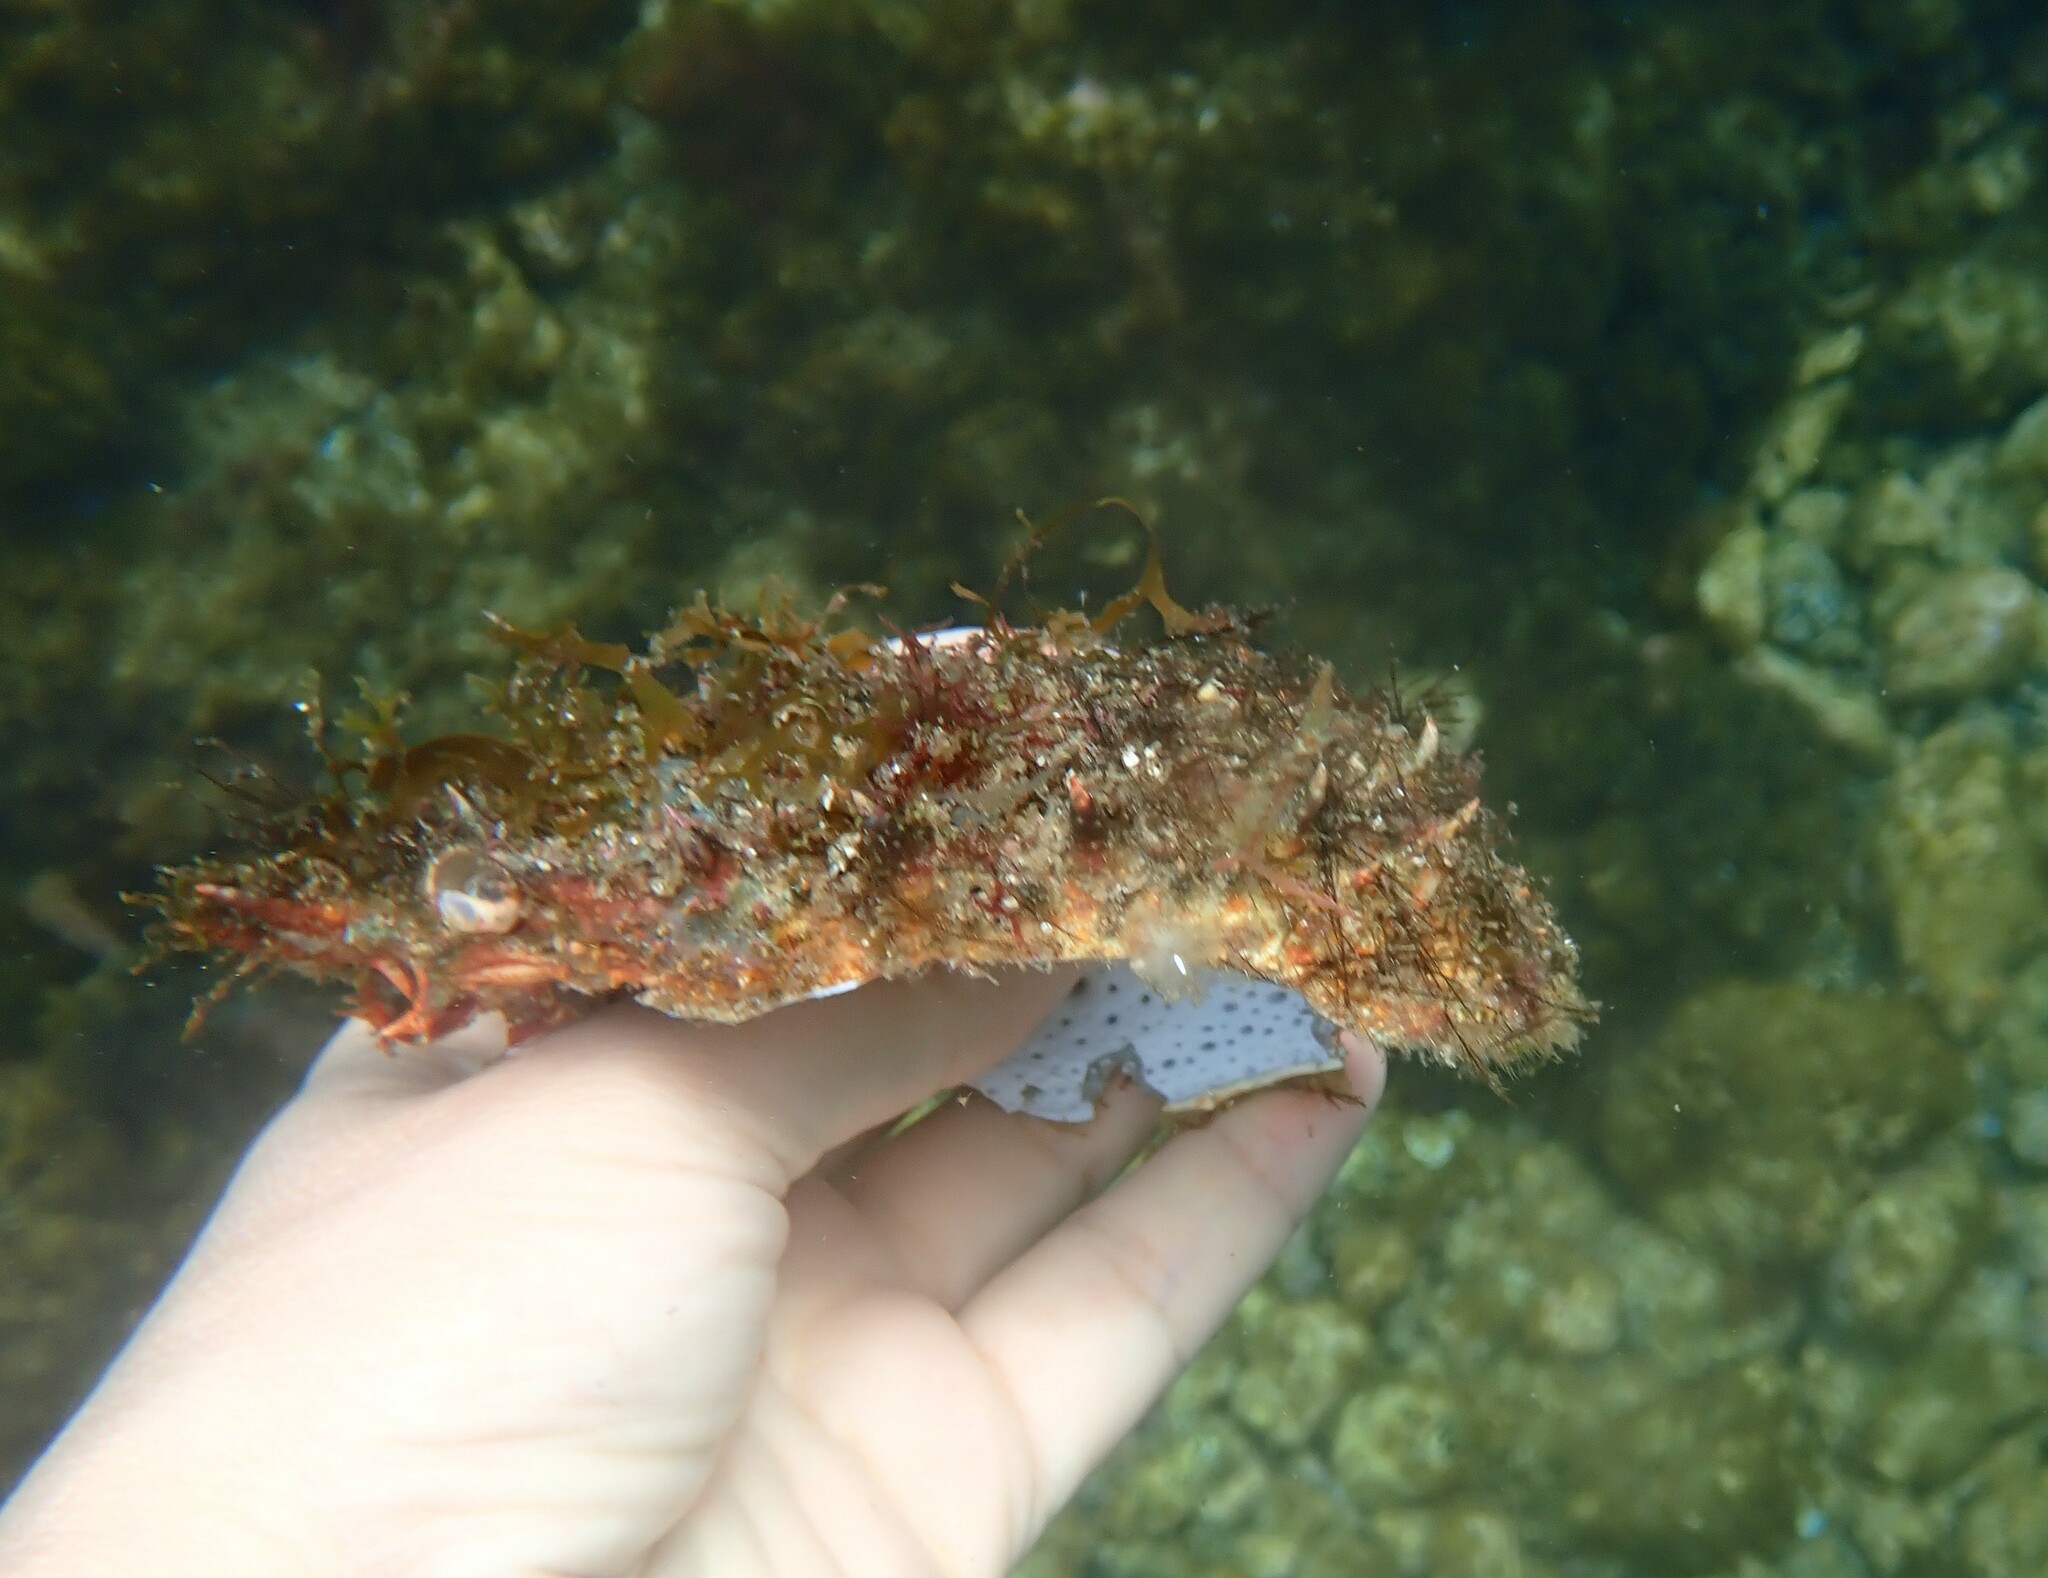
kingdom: Animalia
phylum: Arthropoda
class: Malacostraca
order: Decapoda
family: Majidae
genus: Maja
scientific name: Maja brachydactyla
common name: Common spider crab
